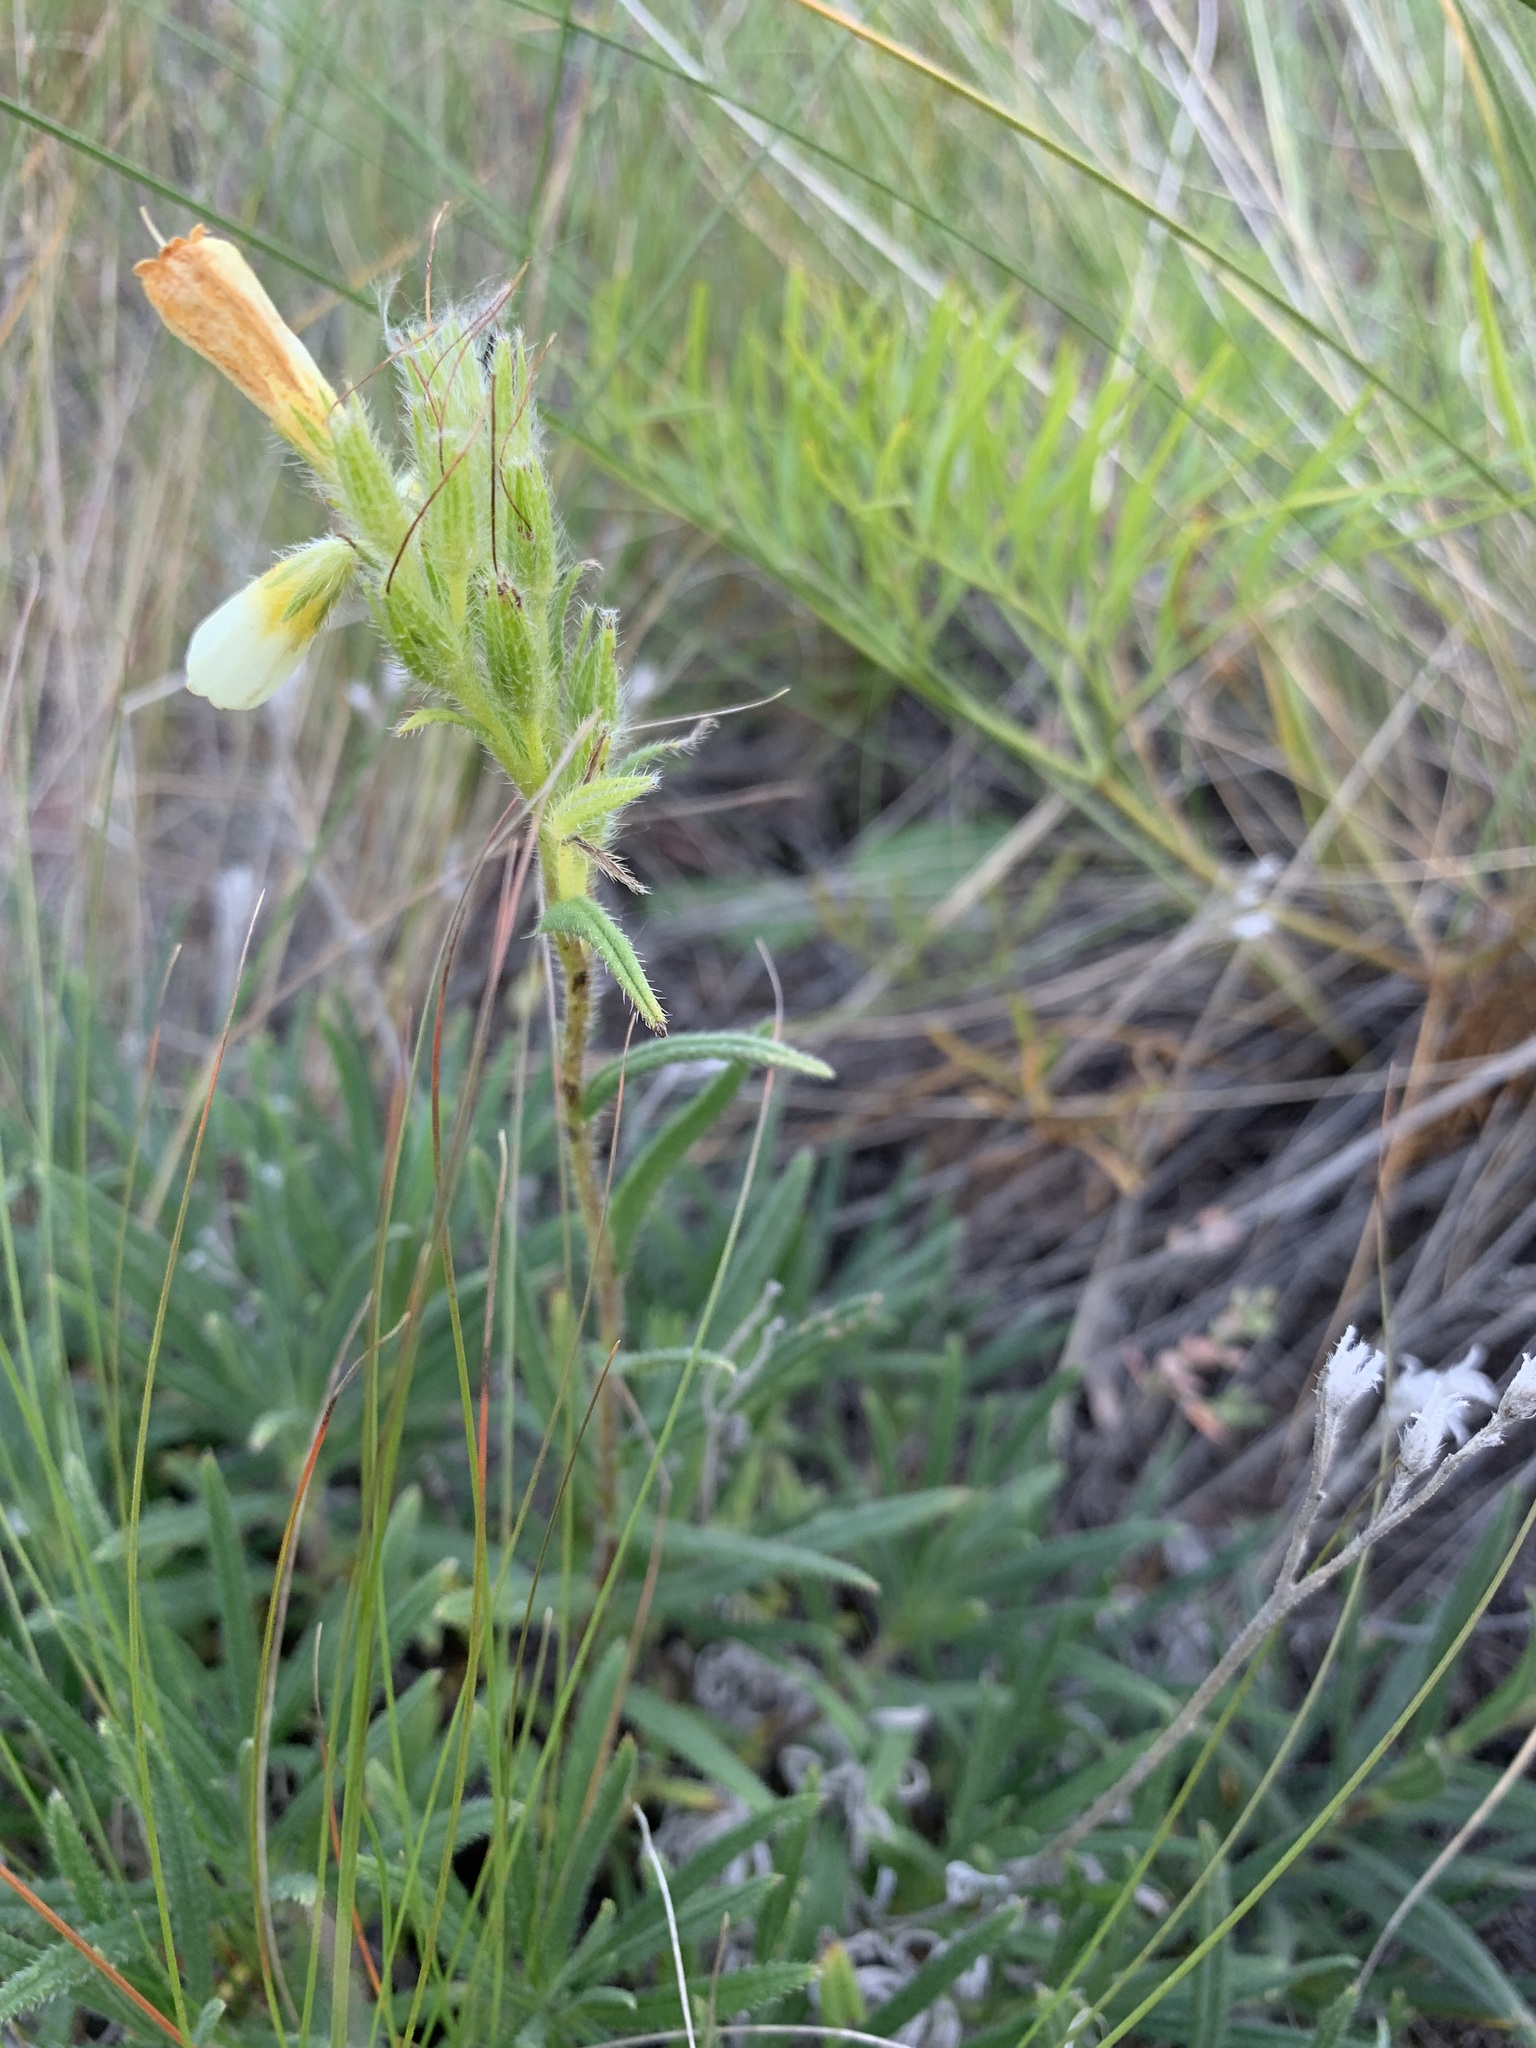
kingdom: Plantae
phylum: Tracheophyta
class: Magnoliopsida
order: Boraginales
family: Boraginaceae
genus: Onosma
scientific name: Onosma simplicissima
